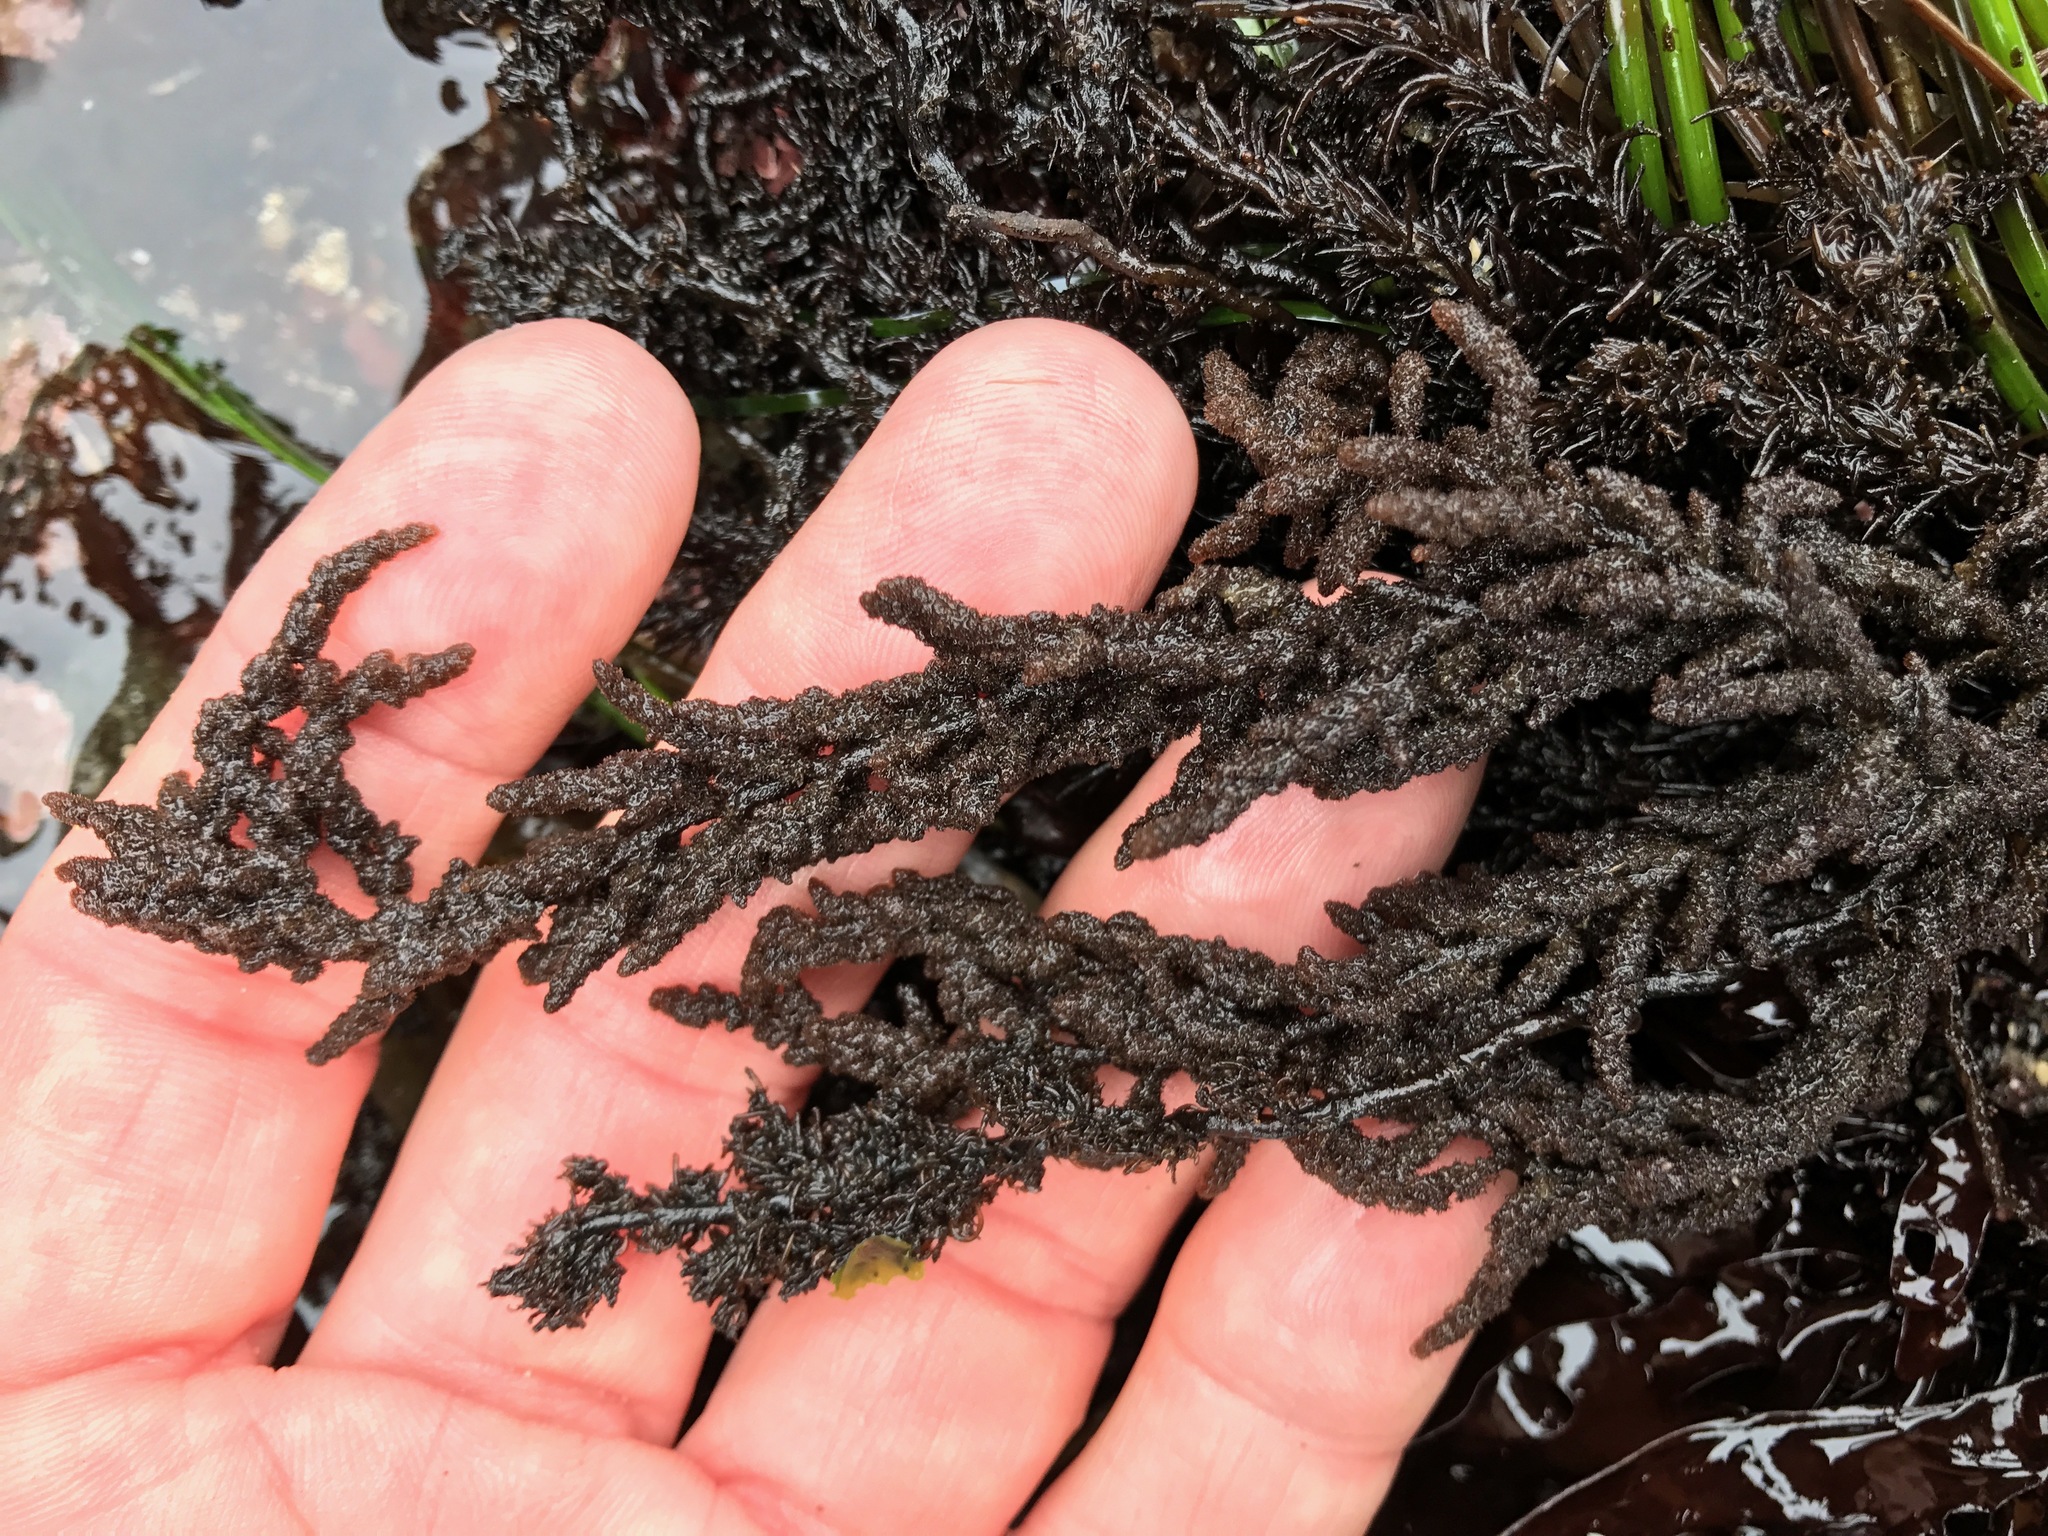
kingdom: Plantae
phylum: Rhodophyta
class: Florideophyceae
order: Ceramiales
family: Callithamniaceae
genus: Callithamnion
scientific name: Callithamnion pikeanum
